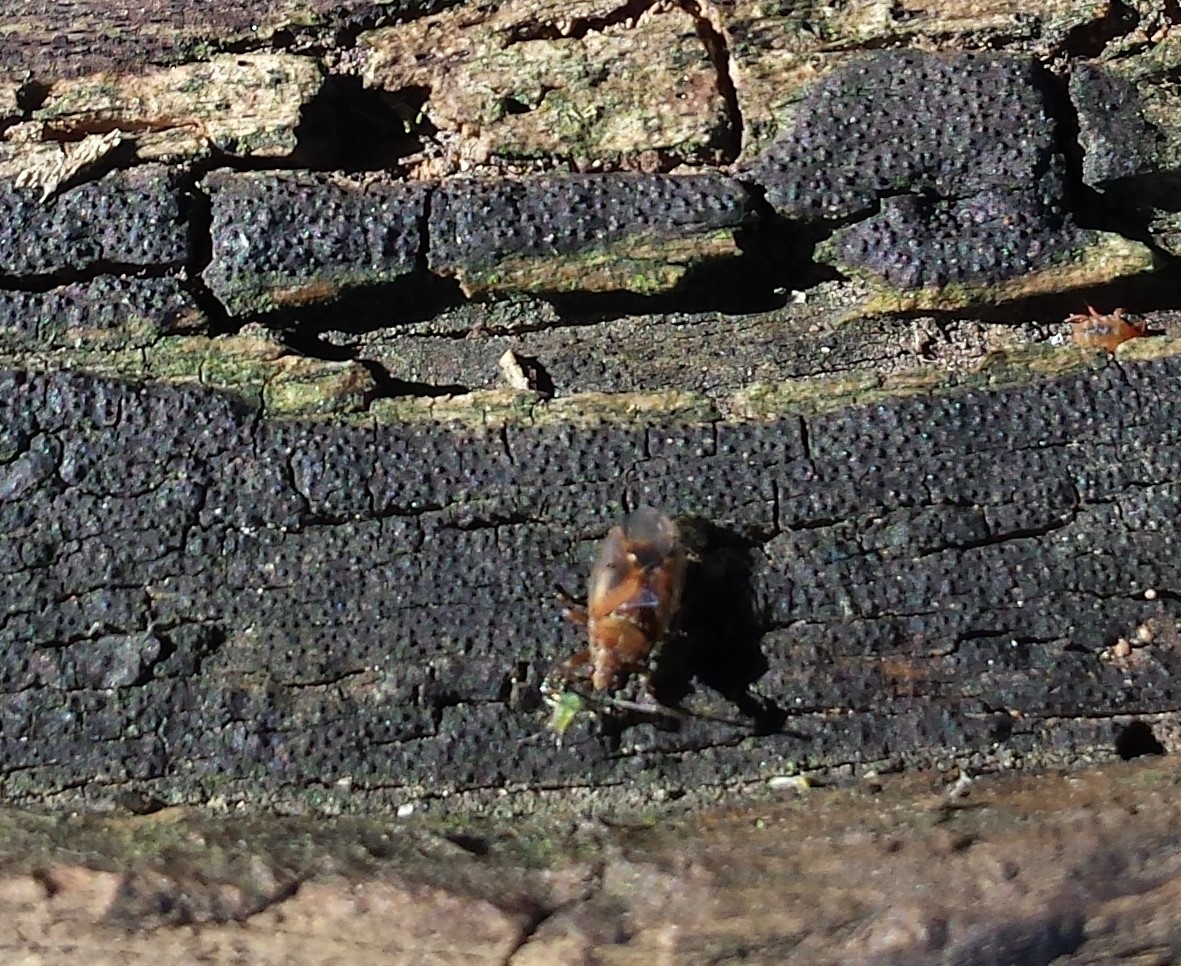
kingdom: Animalia
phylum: Arthropoda
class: Insecta
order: Hemiptera
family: Lygaeidae
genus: Kleidocerys
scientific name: Kleidocerys resedae
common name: Birch catkin bug
